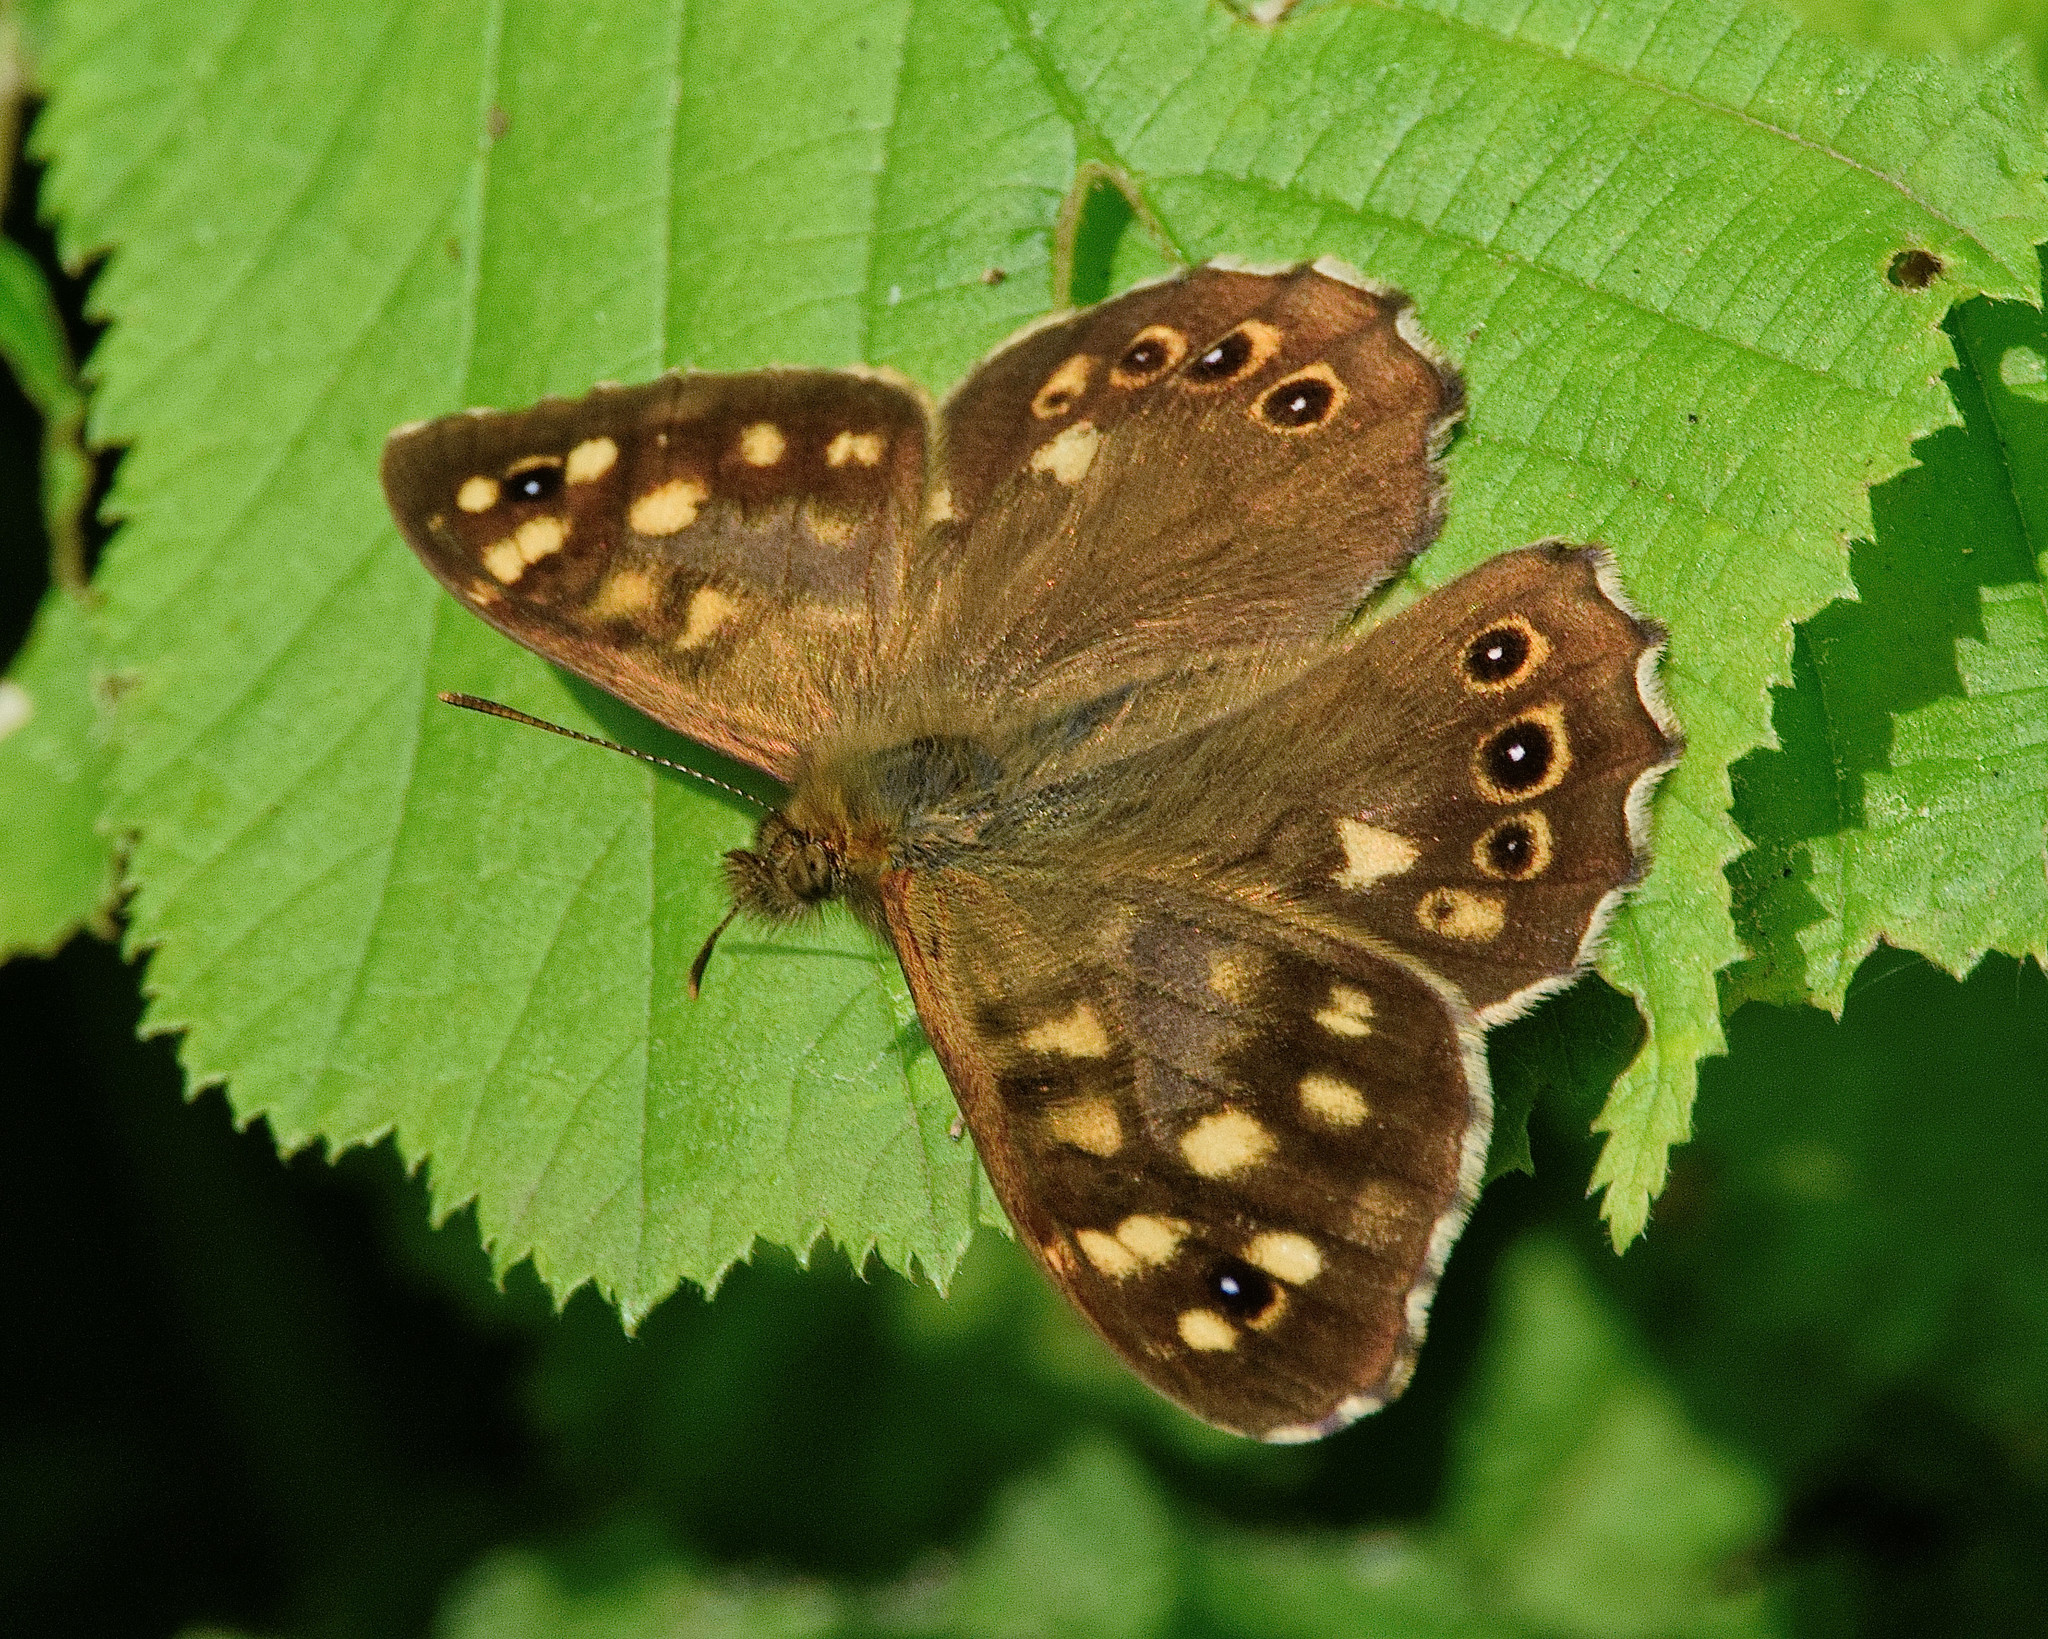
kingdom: Animalia
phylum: Arthropoda
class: Insecta
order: Lepidoptera
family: Nymphalidae
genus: Pararge
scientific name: Pararge aegeria
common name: Speckled wood
